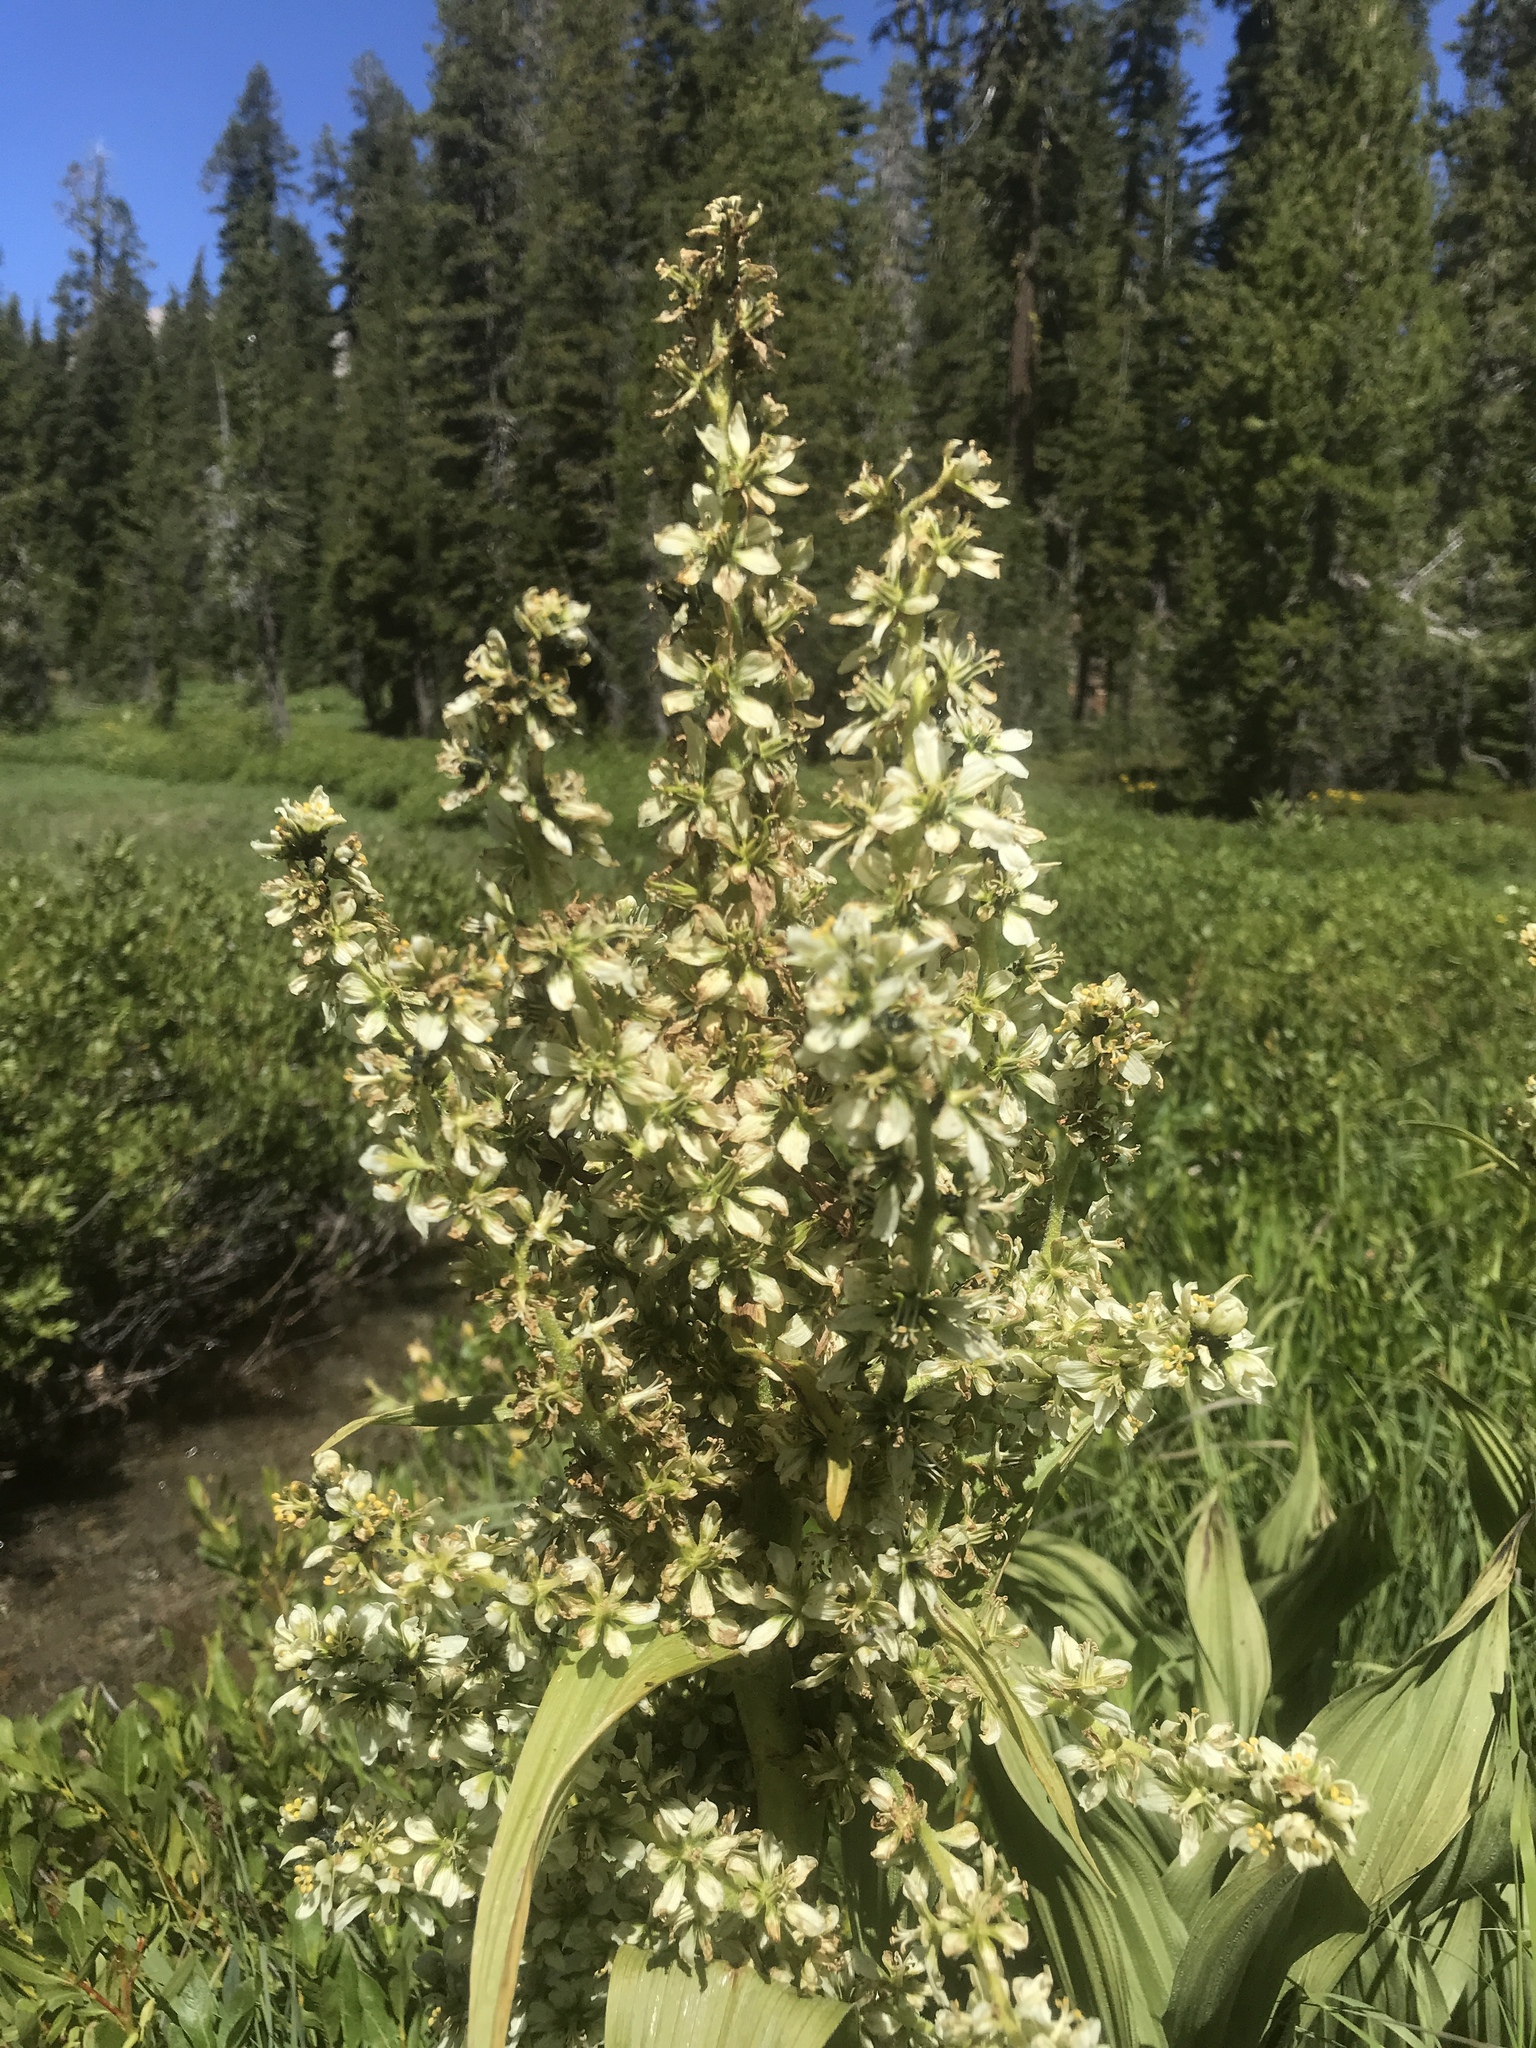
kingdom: Plantae
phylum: Tracheophyta
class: Liliopsida
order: Liliales
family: Melanthiaceae
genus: Veratrum
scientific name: Veratrum californicum
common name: California veratrum
